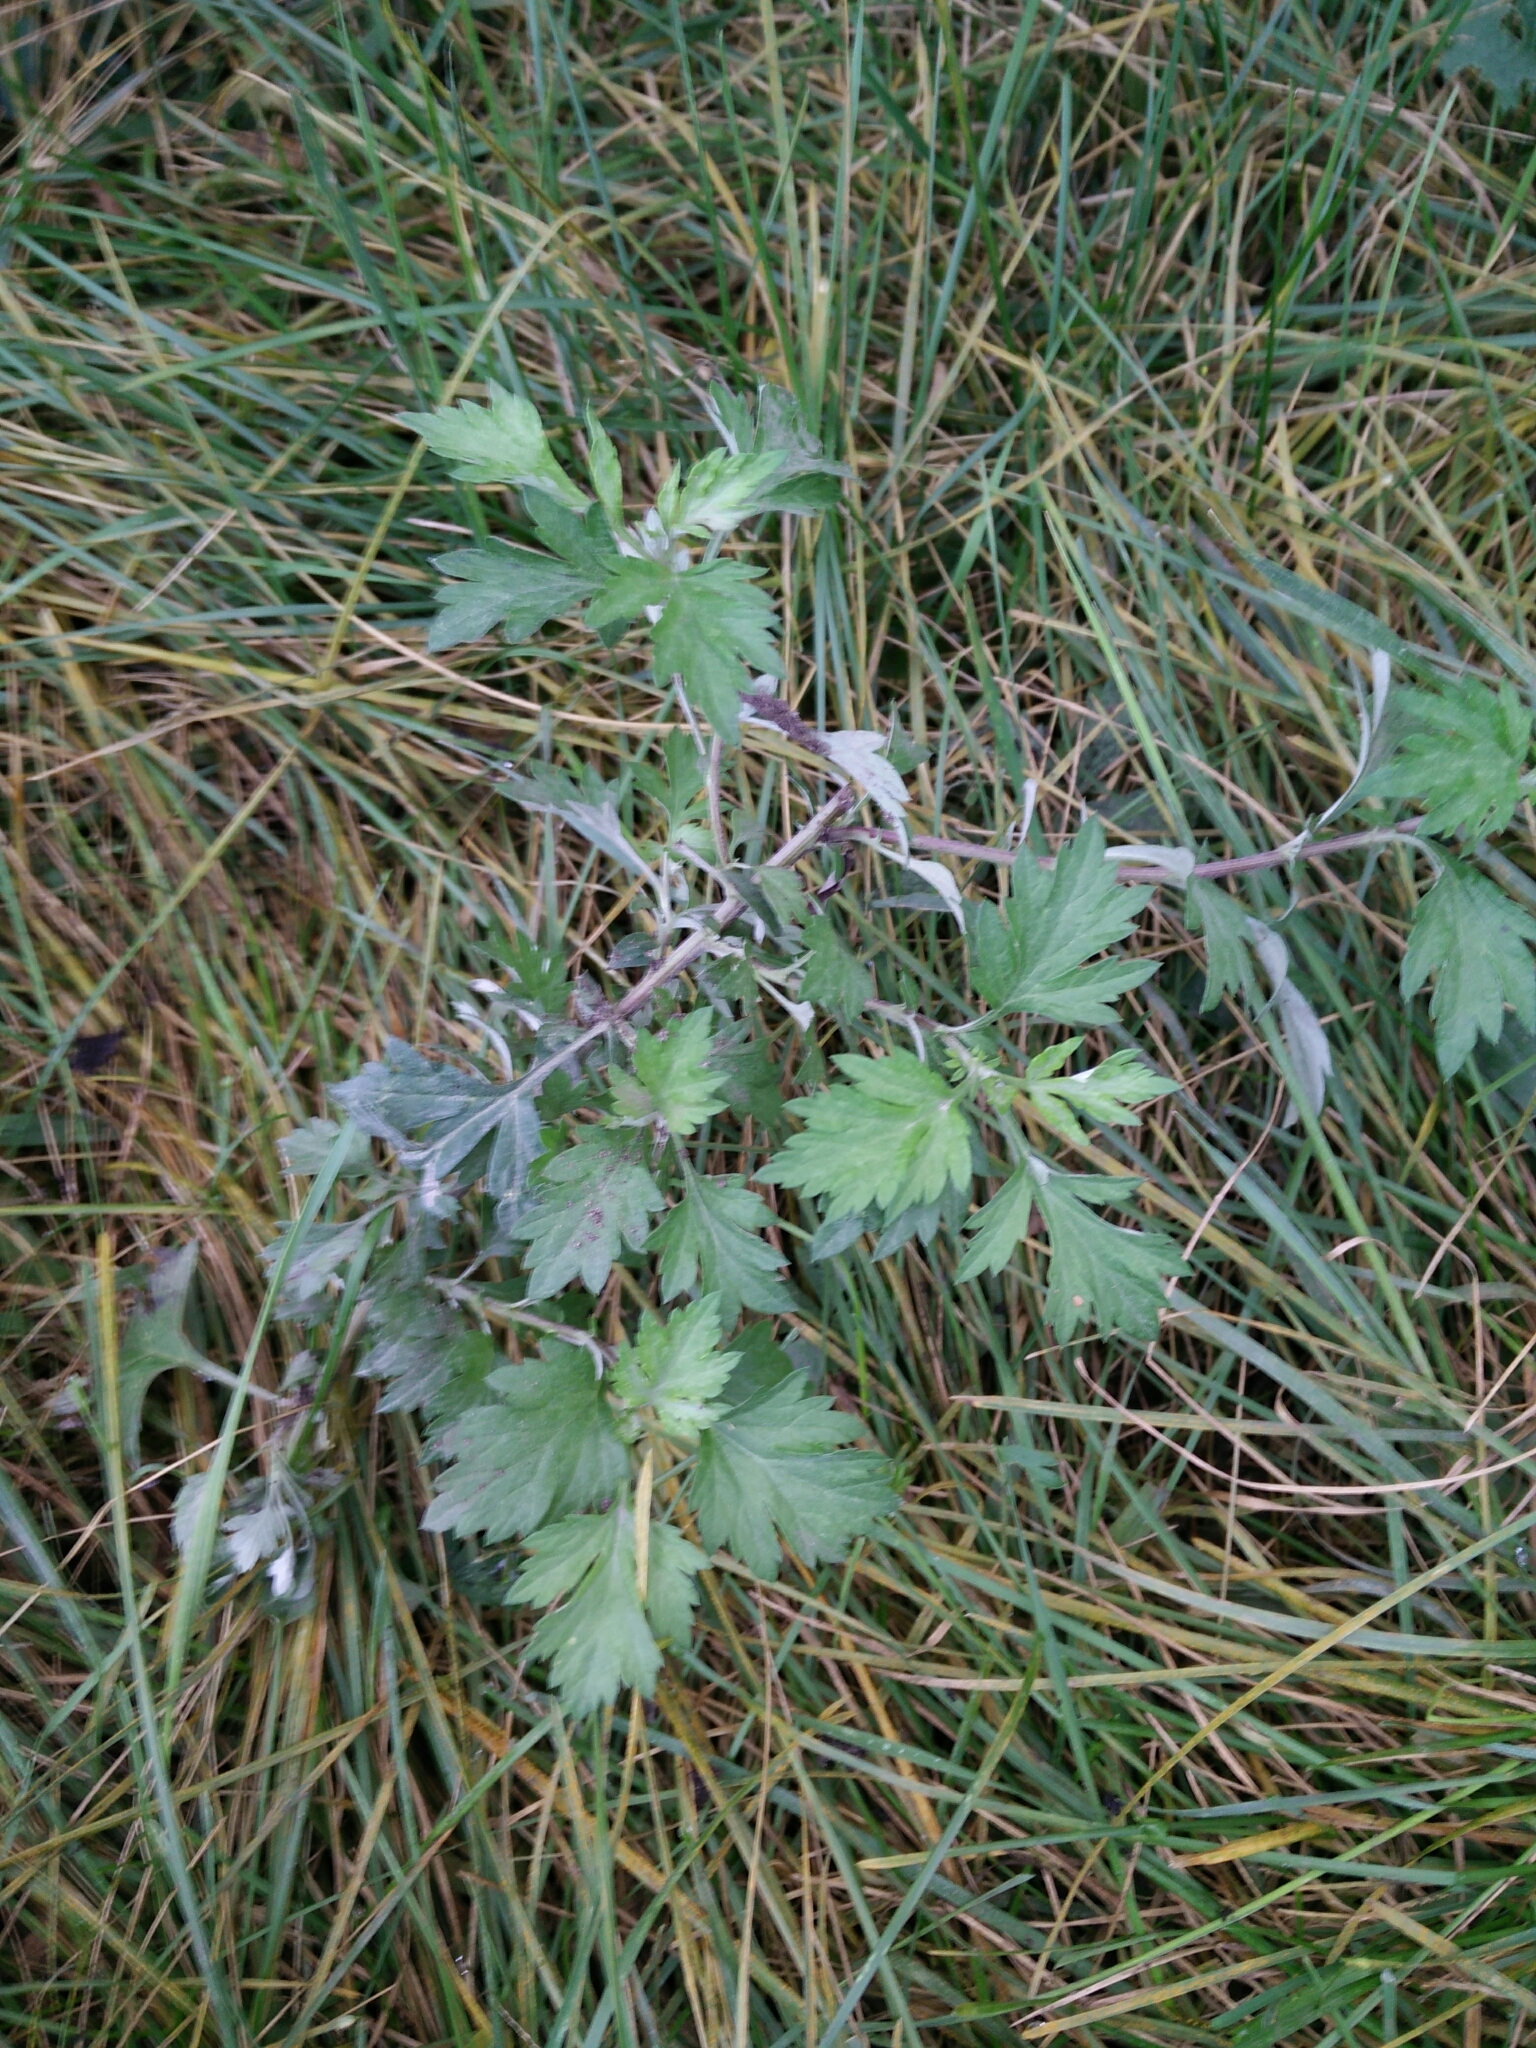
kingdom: Plantae
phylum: Tracheophyta
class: Magnoliopsida
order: Asterales
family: Asteraceae
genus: Artemisia
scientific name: Artemisia vulgaris
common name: Mugwort
